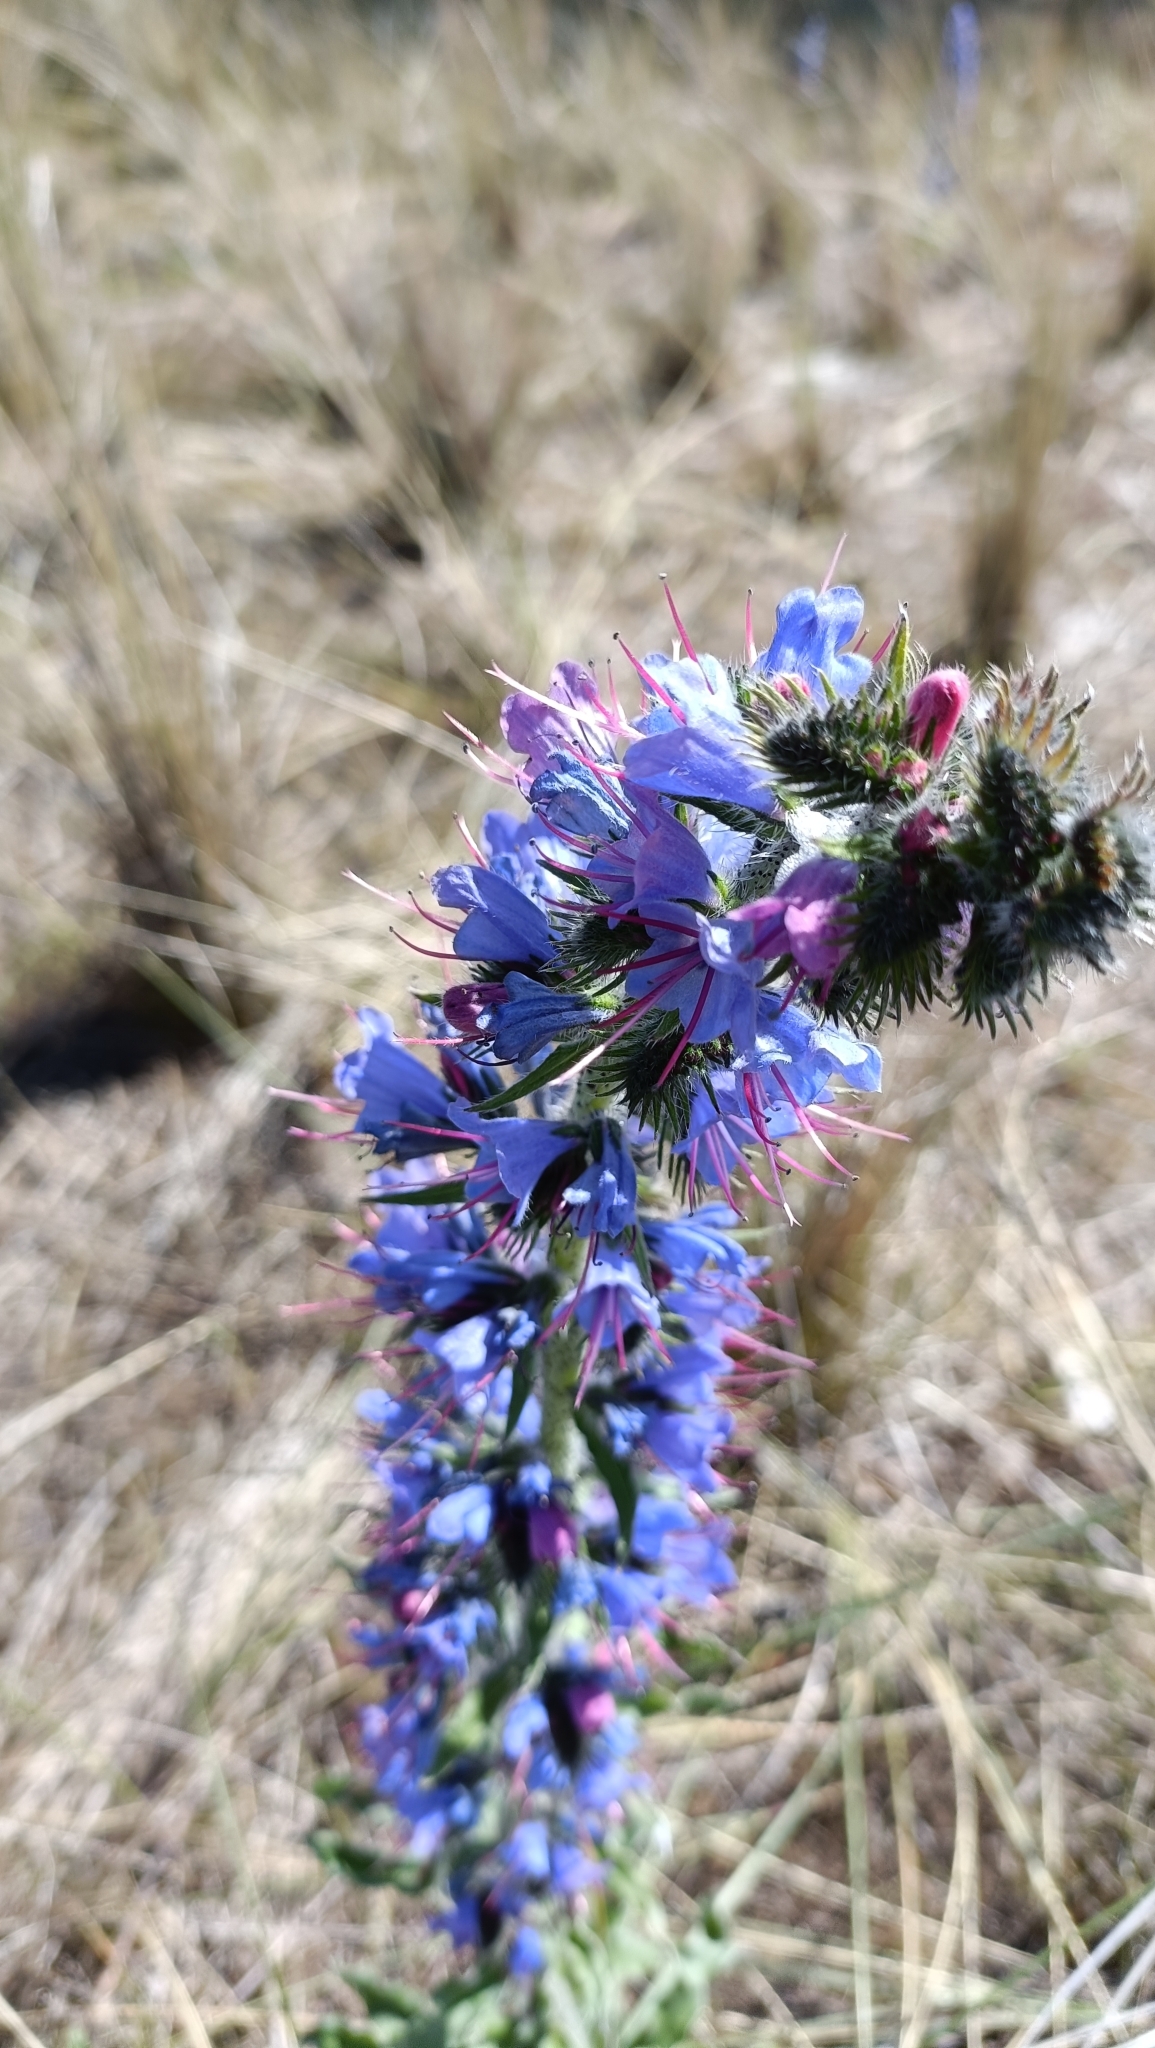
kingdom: Plantae
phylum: Tracheophyta
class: Magnoliopsida
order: Boraginales
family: Boraginaceae
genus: Echium
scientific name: Echium vulgare
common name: Common viper's bugloss
